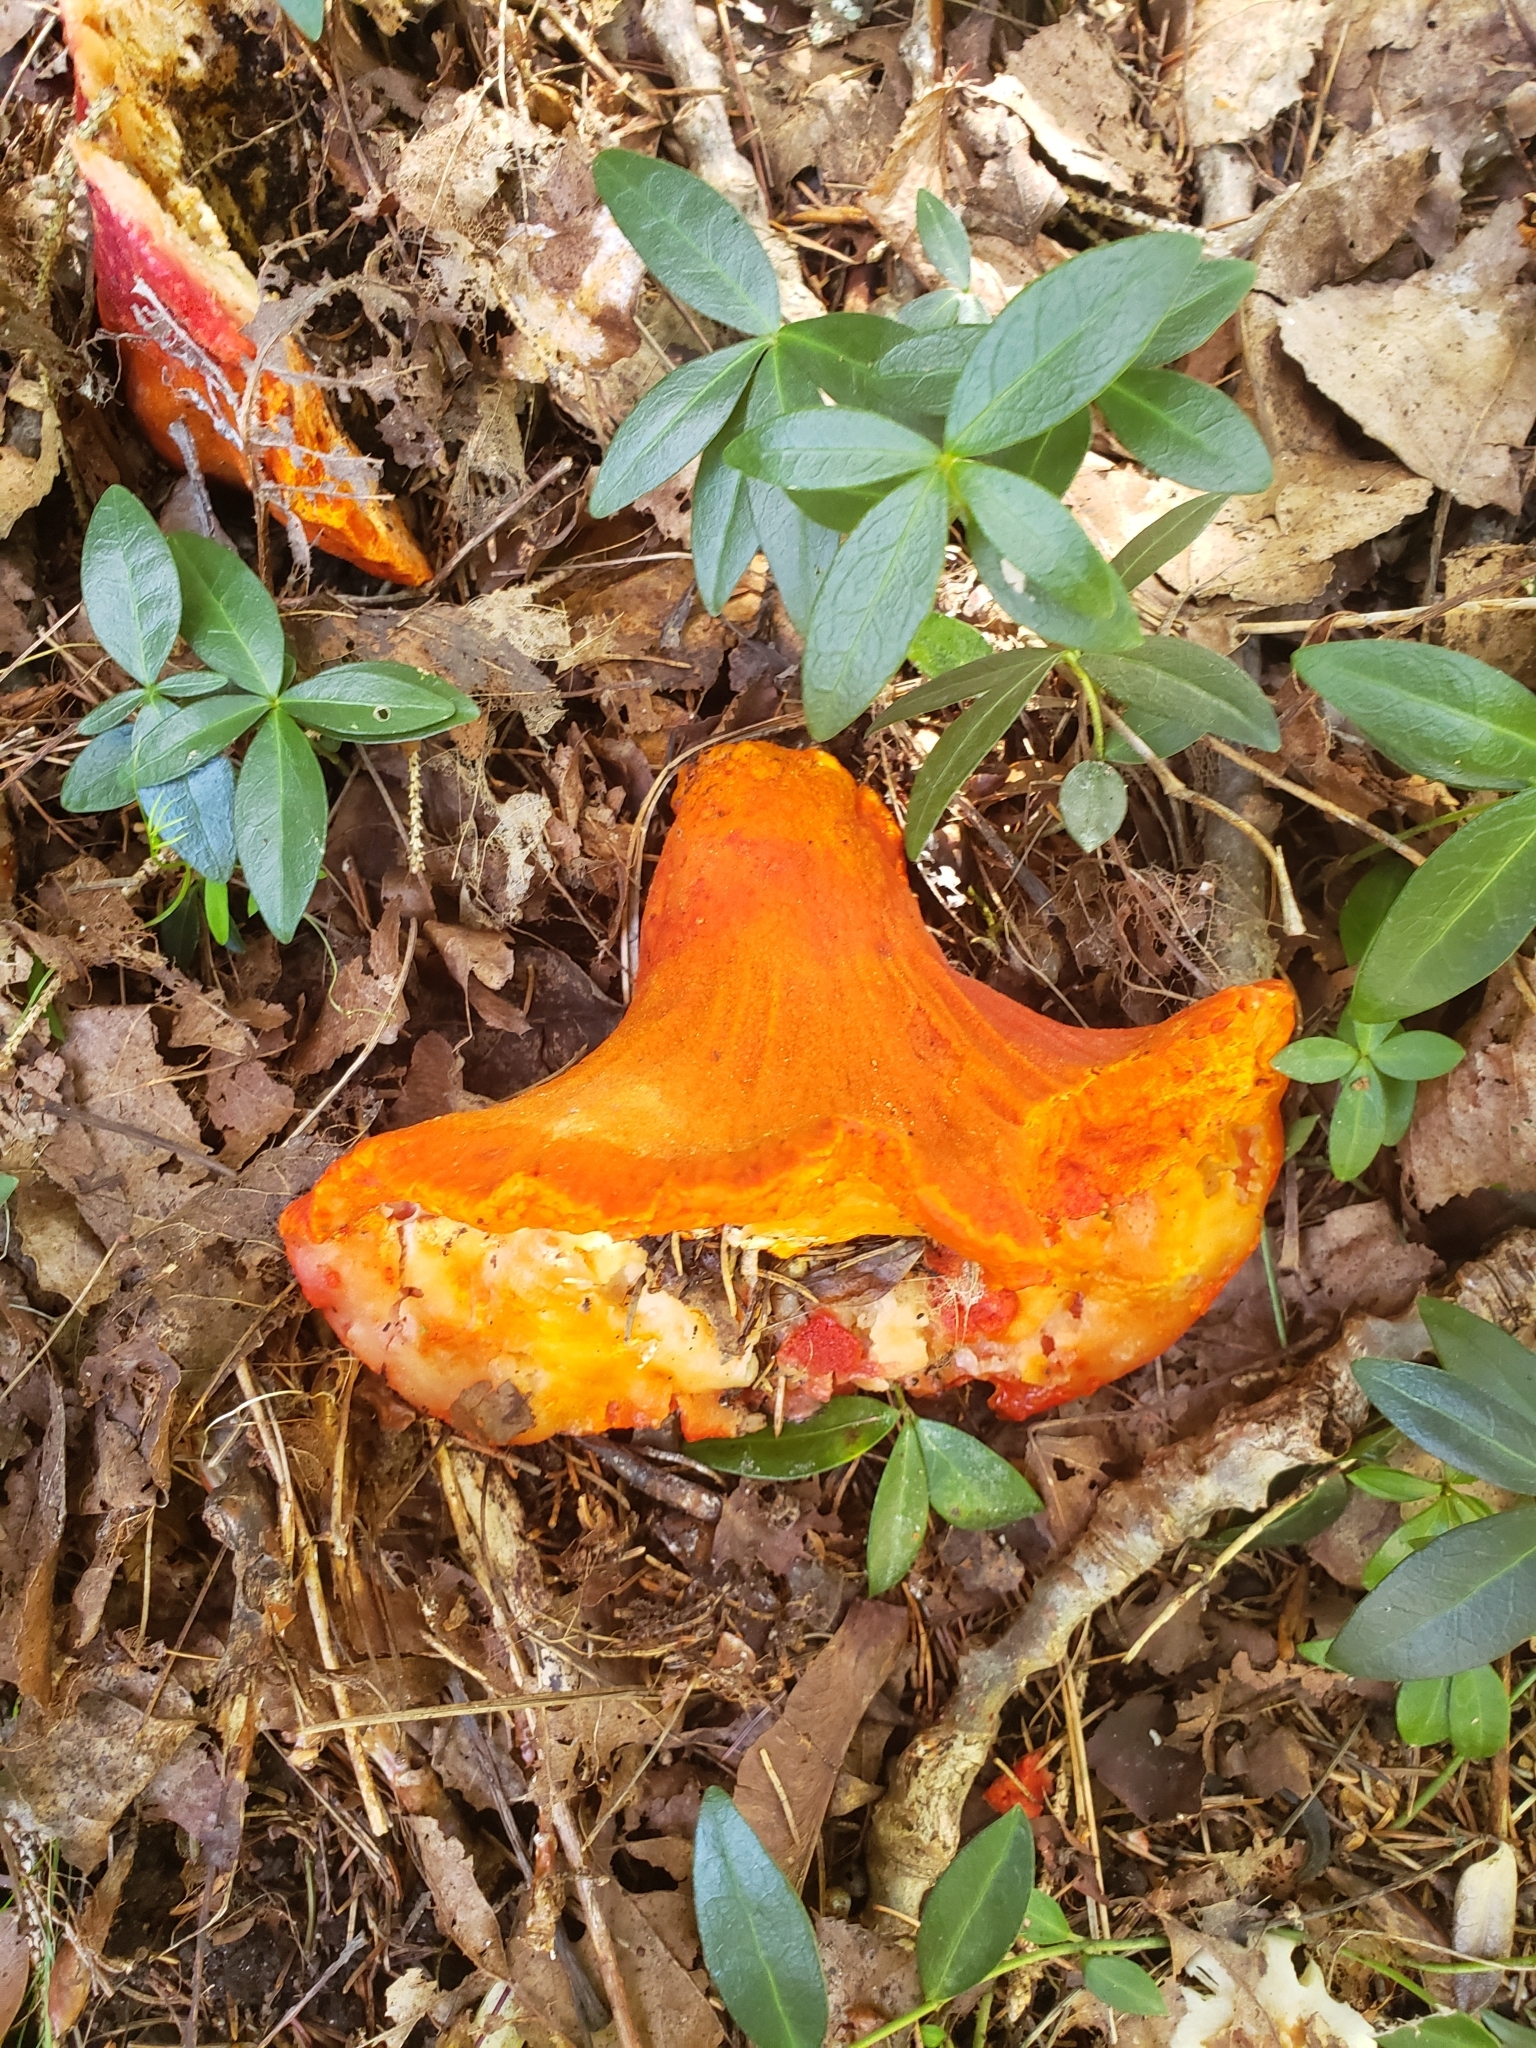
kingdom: Fungi
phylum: Ascomycota
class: Sordariomycetes
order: Hypocreales
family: Hypocreaceae
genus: Hypomyces
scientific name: Hypomyces lactifluorum
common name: Lobster mushroom
